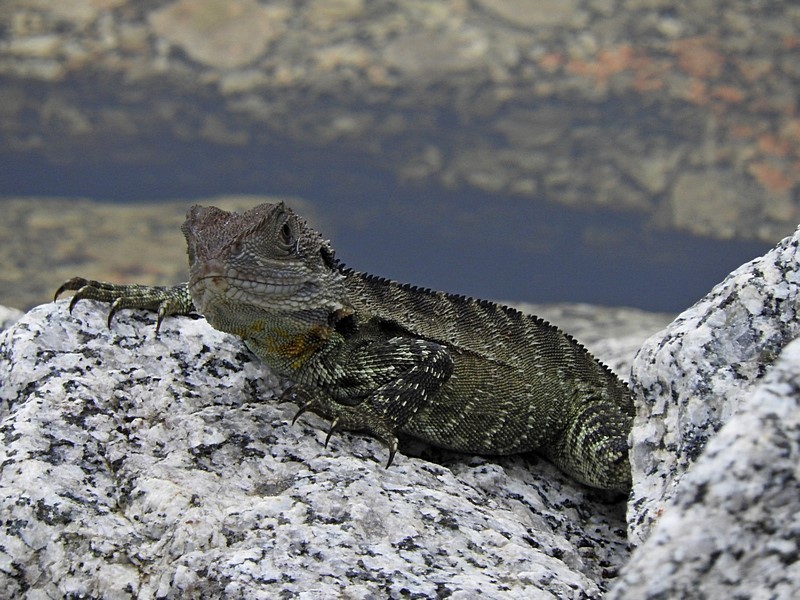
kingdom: Animalia
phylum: Chordata
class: Squamata
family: Agamidae
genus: Intellagama
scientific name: Intellagama lesueurii
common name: Eastern water dragon
